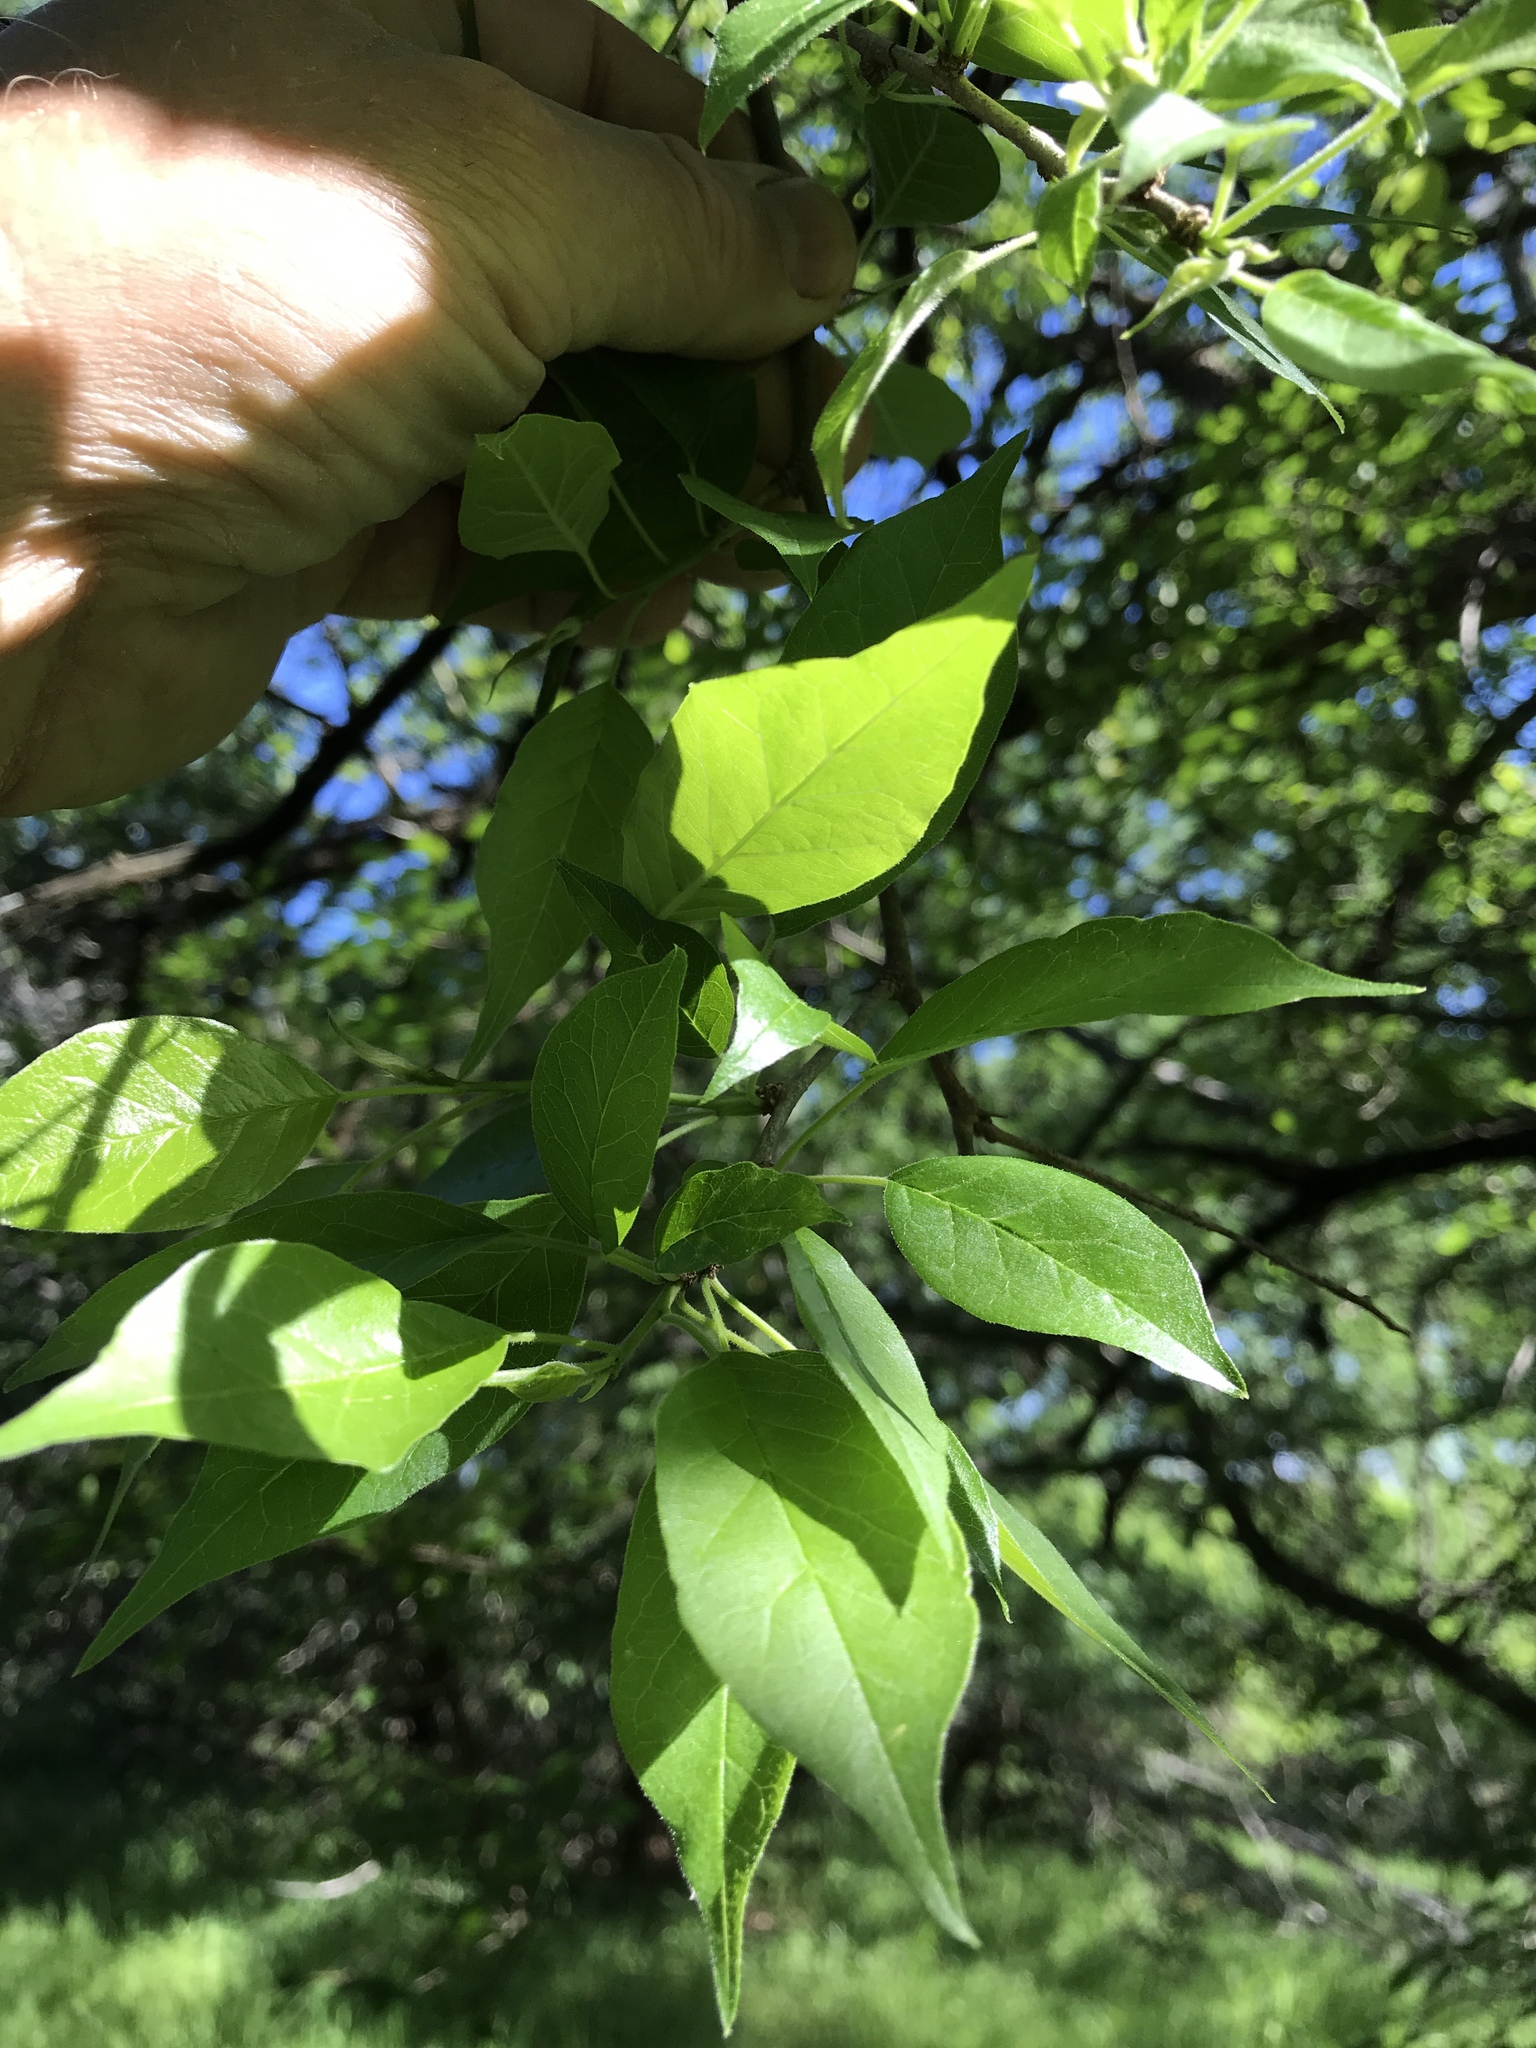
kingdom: Plantae
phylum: Tracheophyta
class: Magnoliopsida
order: Rosales
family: Moraceae
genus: Maclura
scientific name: Maclura pomifera
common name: Osage-orange
